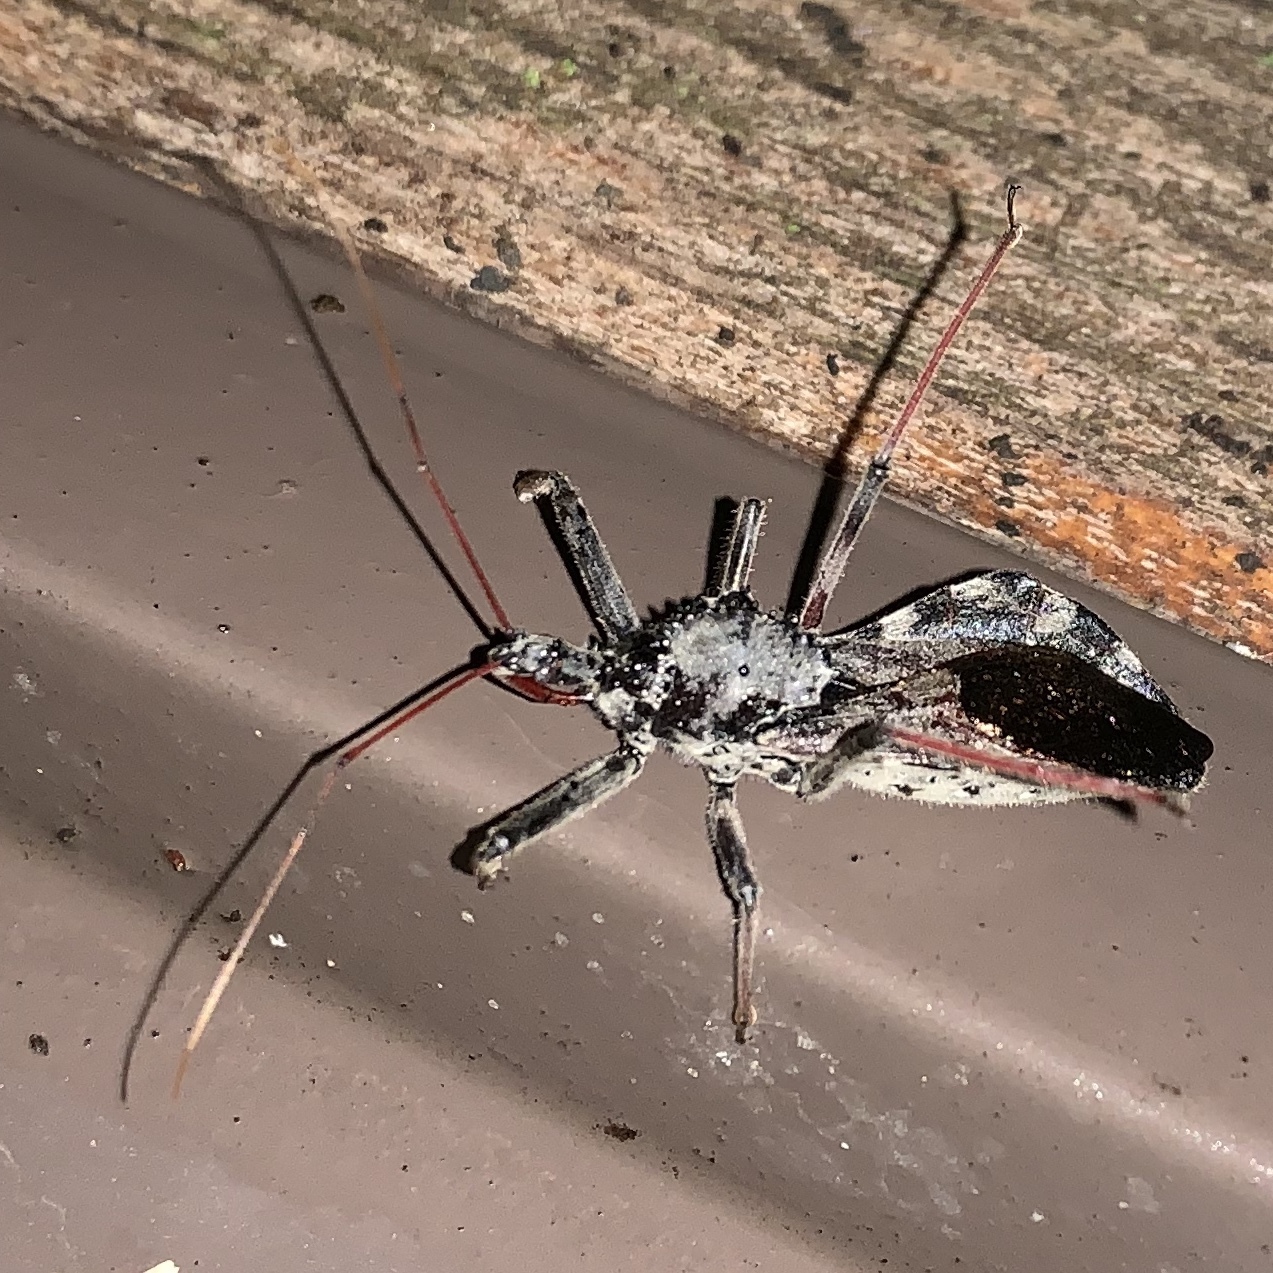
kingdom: Animalia
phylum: Arthropoda
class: Insecta
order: Hemiptera
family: Reduviidae
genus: Arilus
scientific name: Arilus cristatus
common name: North american wheel bug
